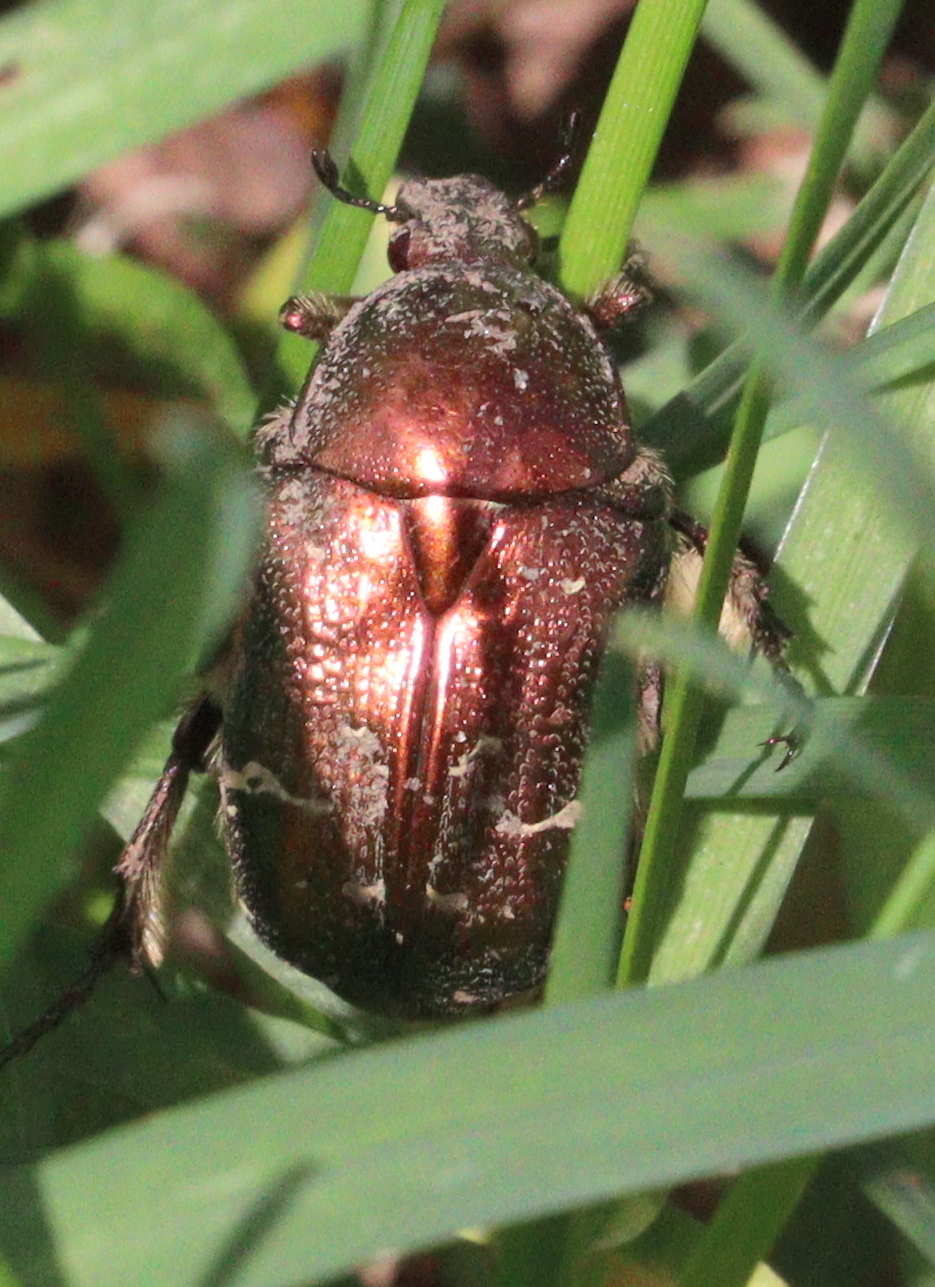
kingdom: Animalia
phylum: Arthropoda
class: Insecta
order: Coleoptera
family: Scarabaeidae
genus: Cetonia
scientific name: Cetonia aurata
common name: Rose chafer
